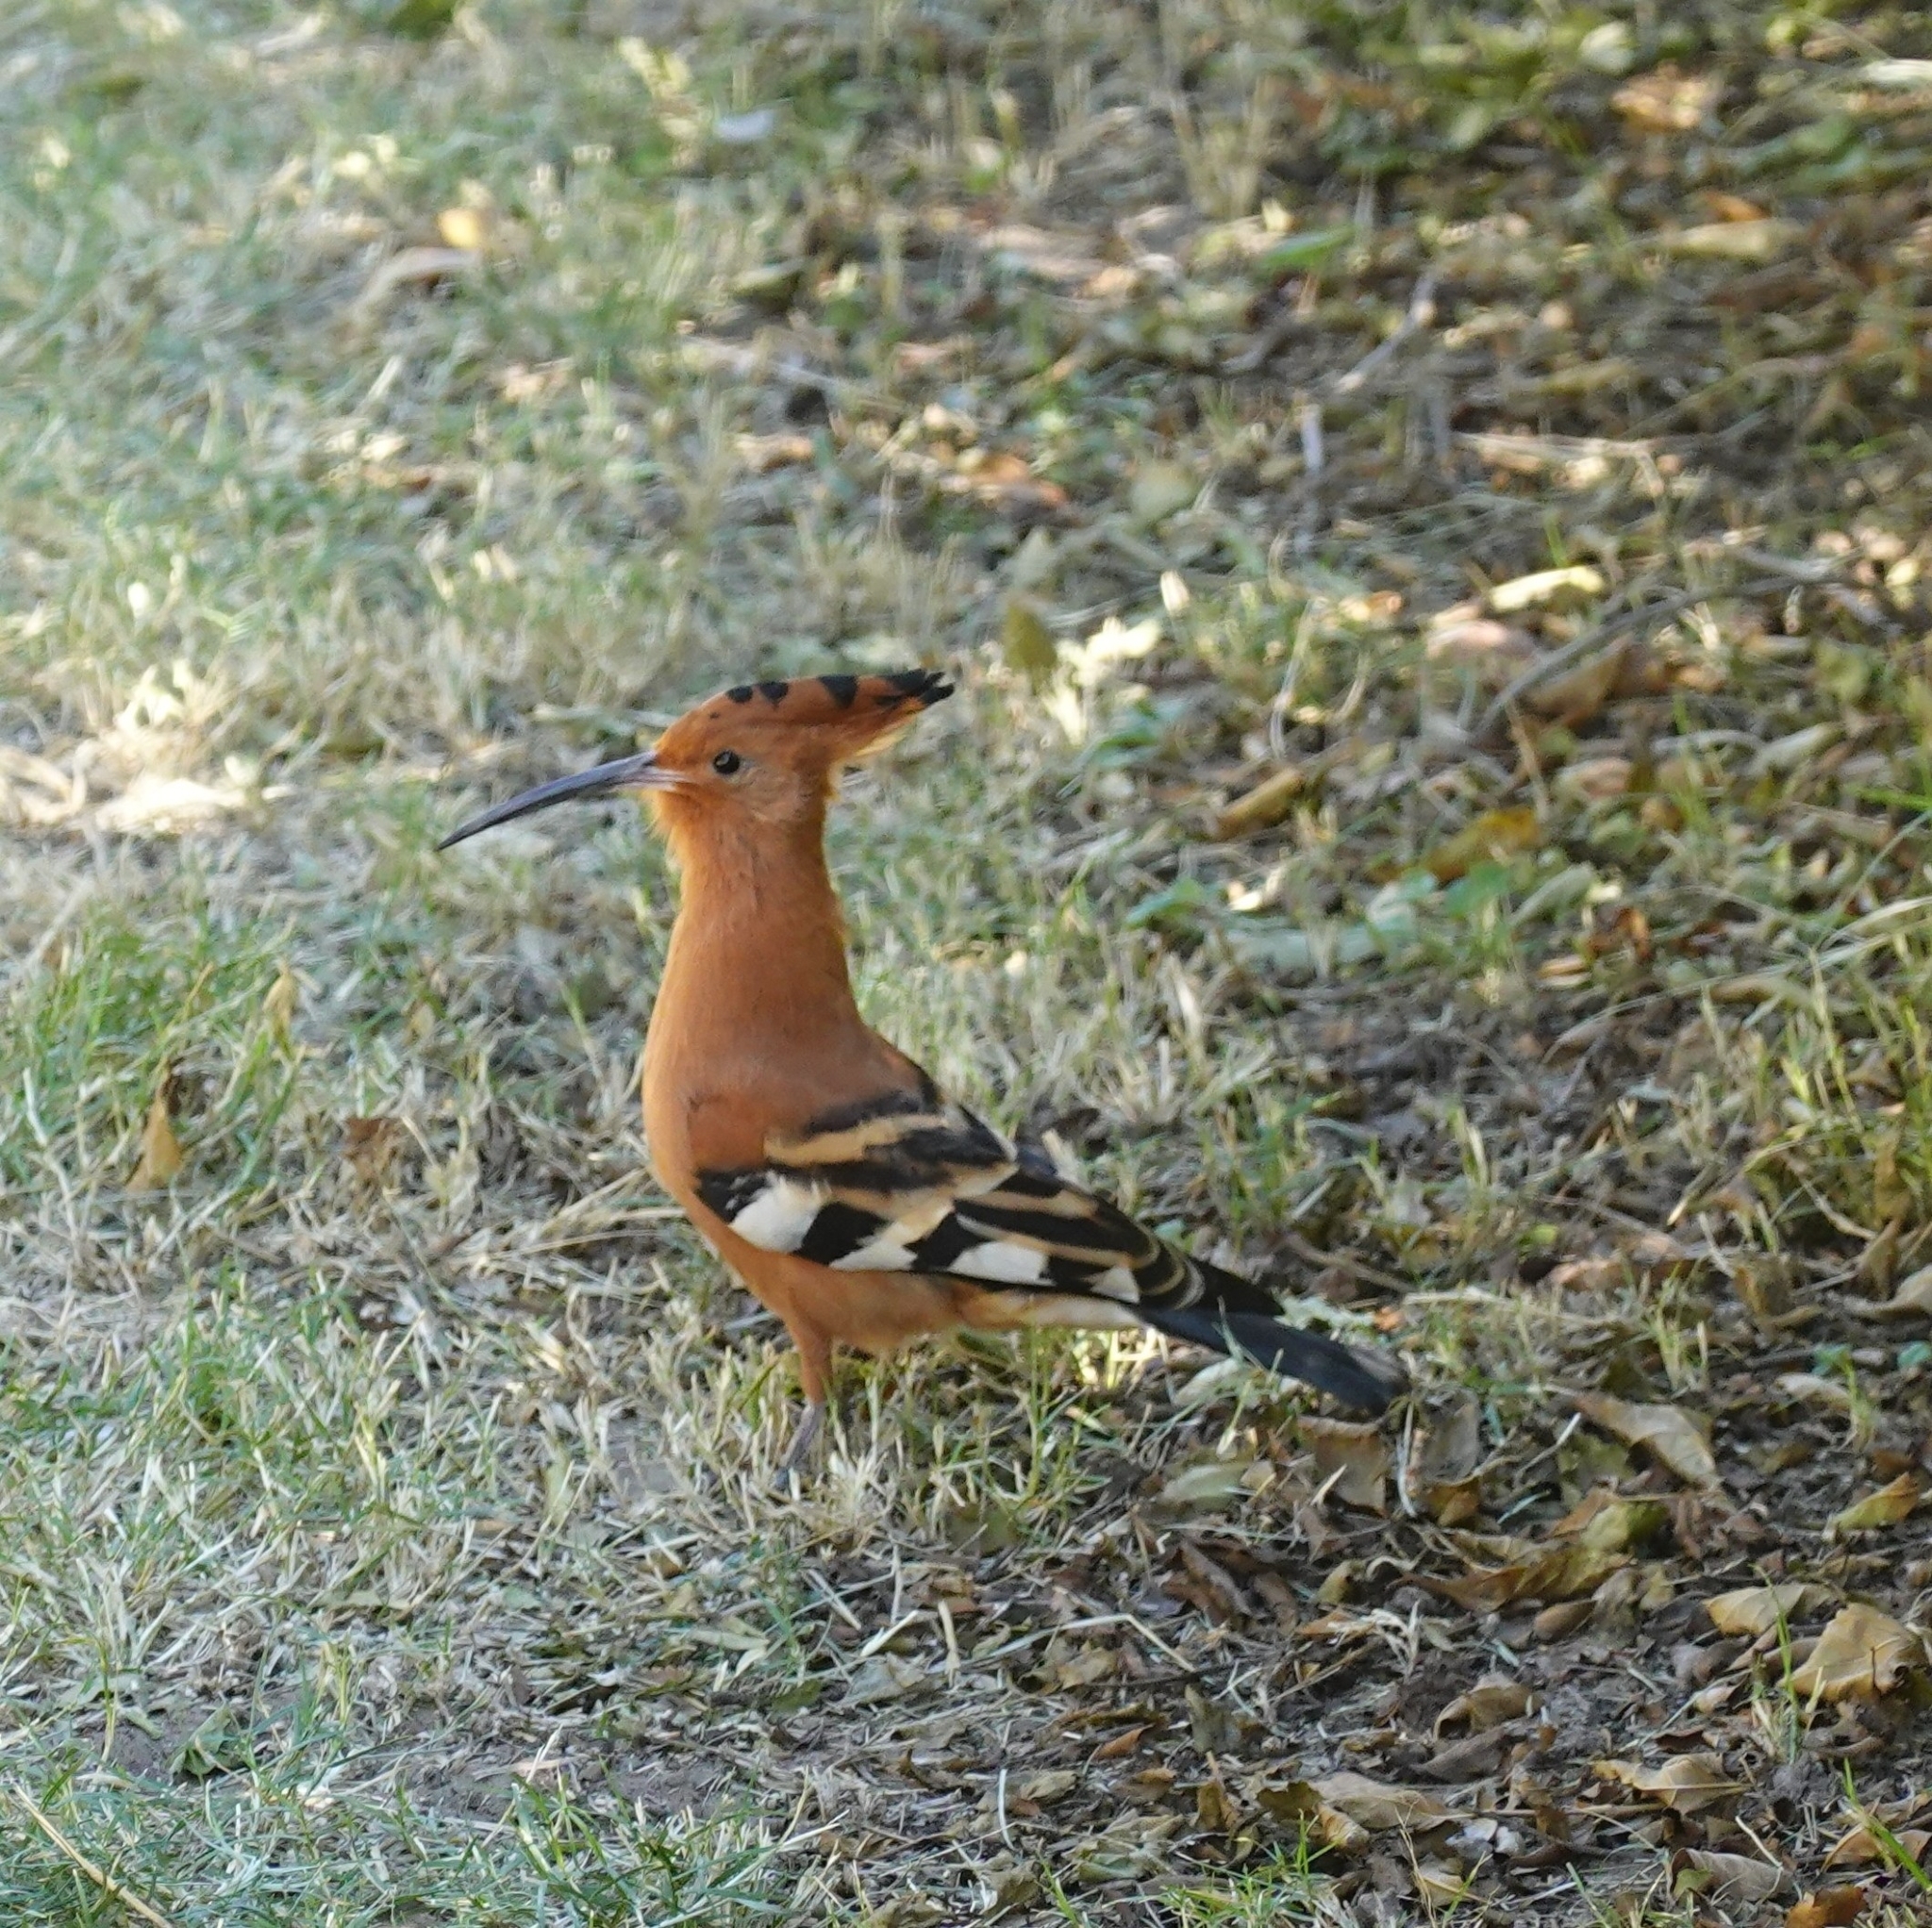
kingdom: Animalia
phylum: Chordata
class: Aves
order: Bucerotiformes
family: Upupidae
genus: Upupa
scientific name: Upupa africana
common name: African hoopoe
